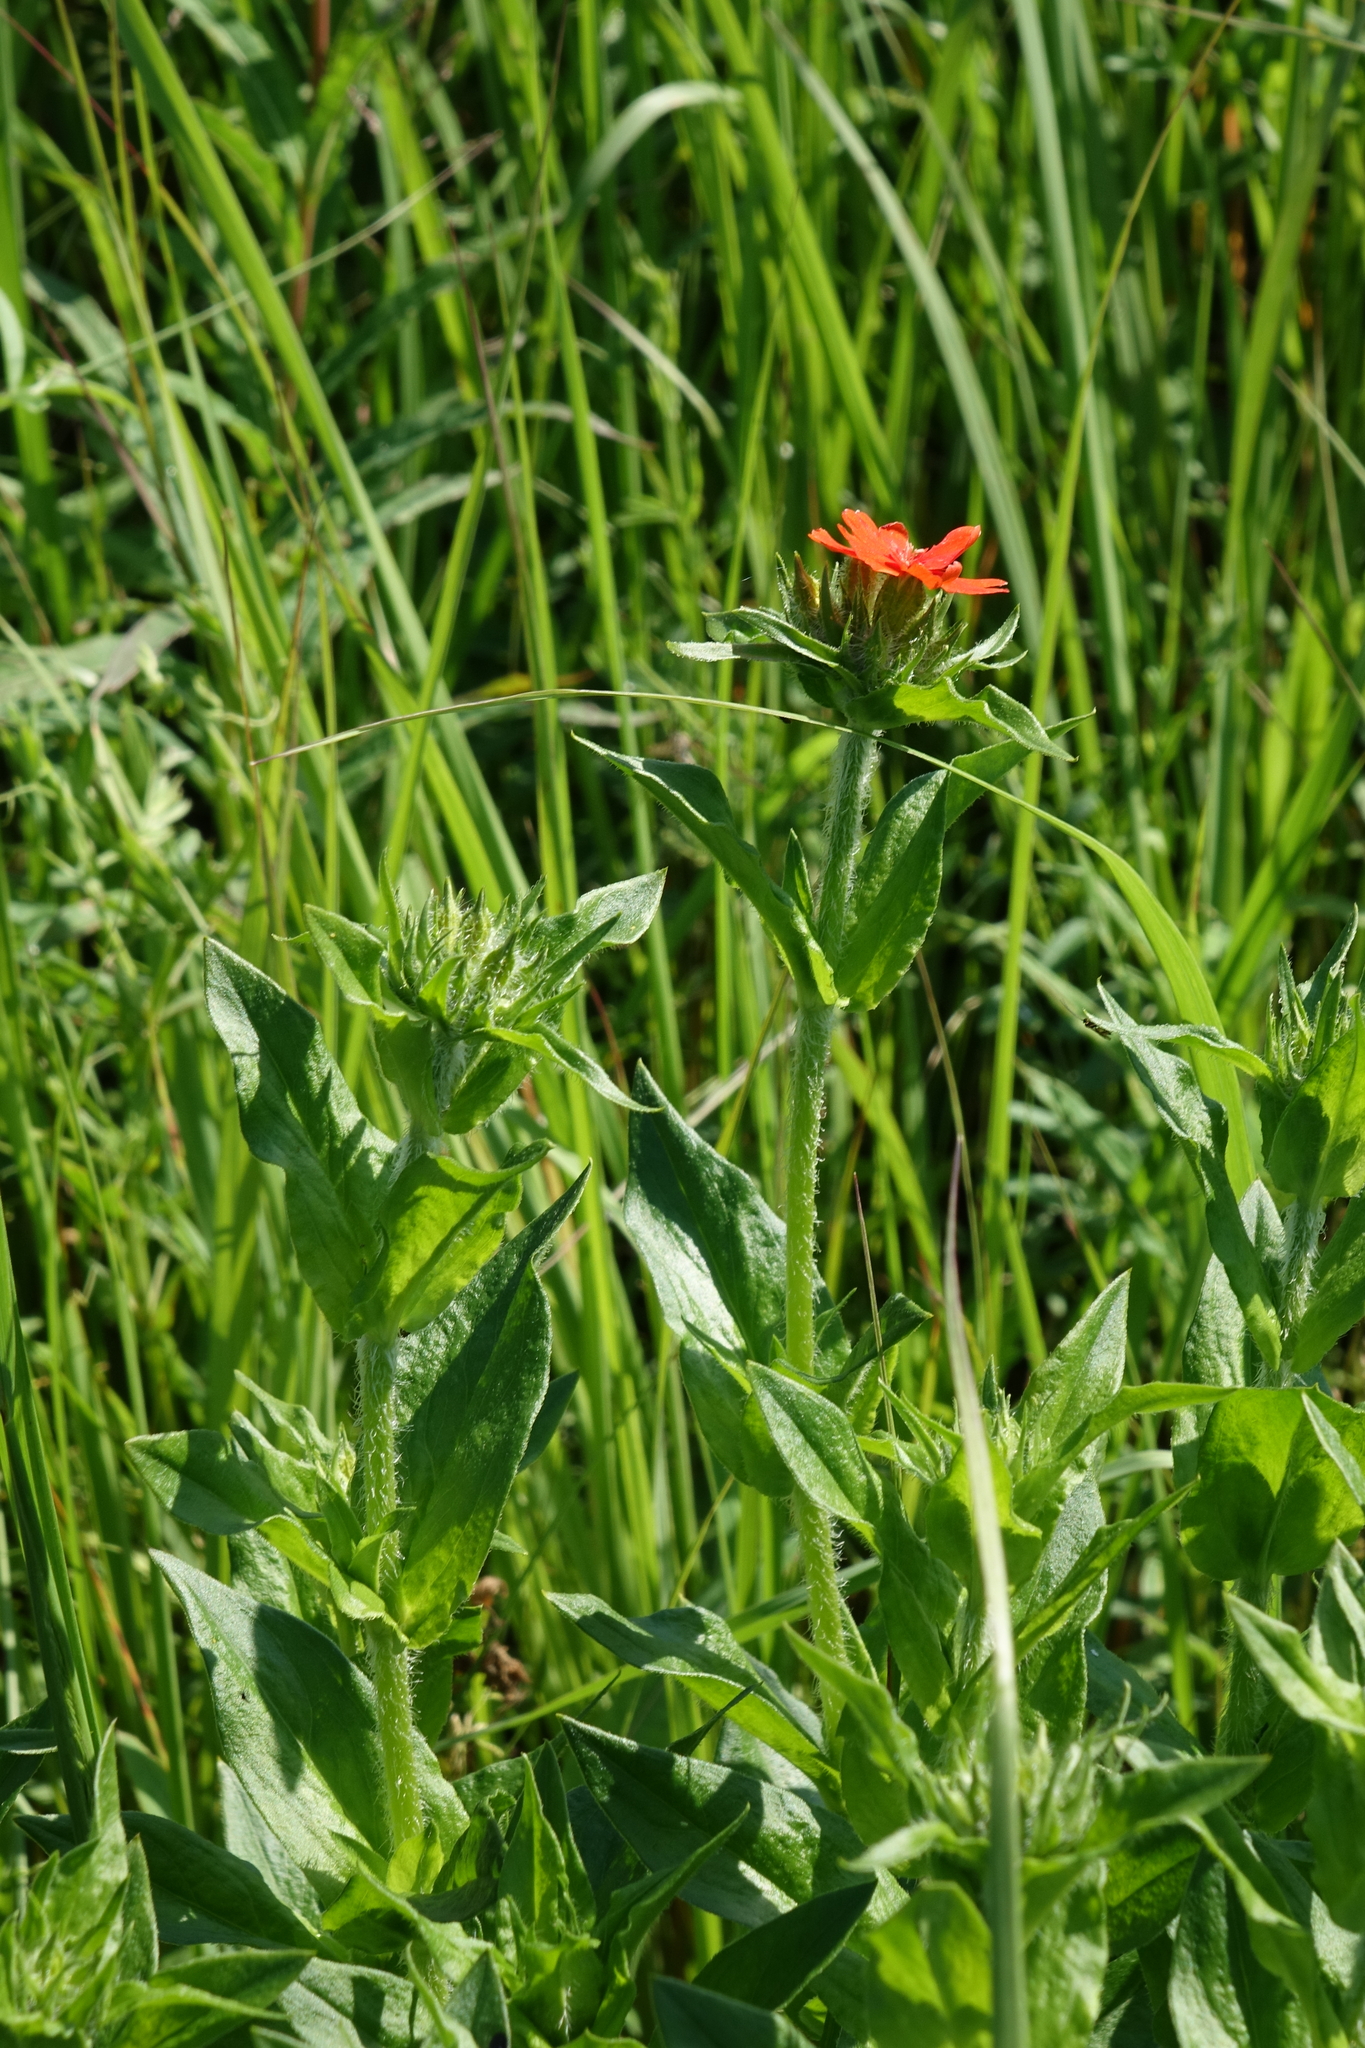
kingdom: Plantae
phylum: Tracheophyta
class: Magnoliopsida
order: Caryophyllales
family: Caryophyllaceae
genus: Silene
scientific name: Silene chalcedonica
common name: Maltese-cross
